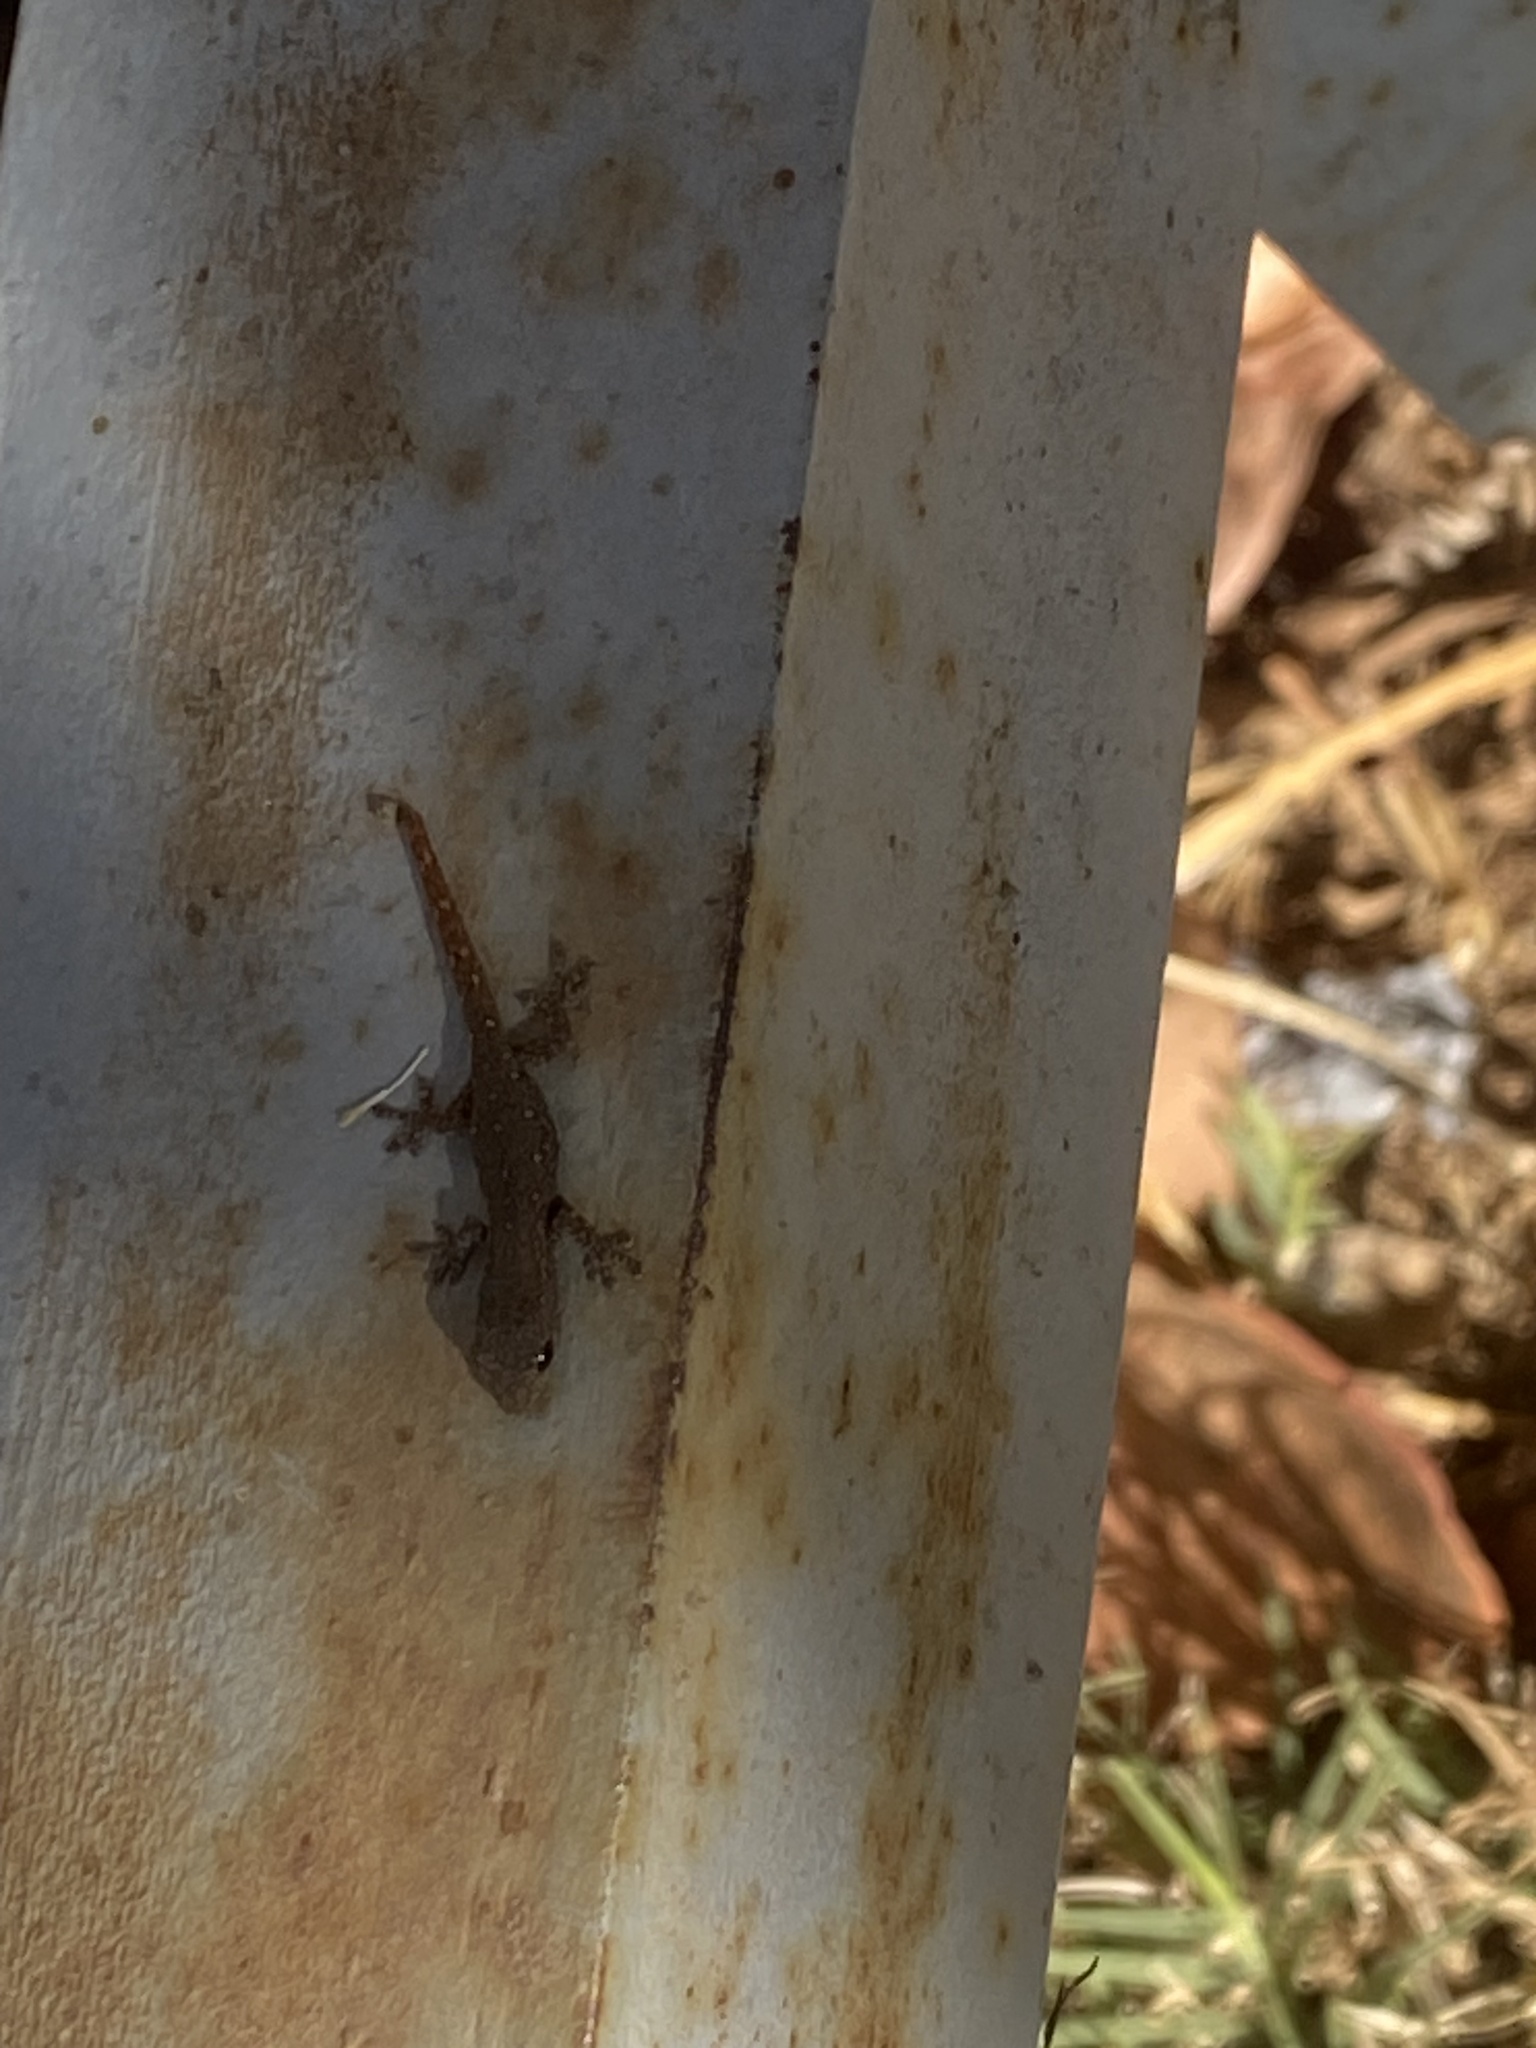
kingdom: Animalia
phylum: Chordata
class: Squamata
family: Gekkonidae
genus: Lygodactylus
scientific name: Lygodactylus capensis
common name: Cape dwarf gecko
